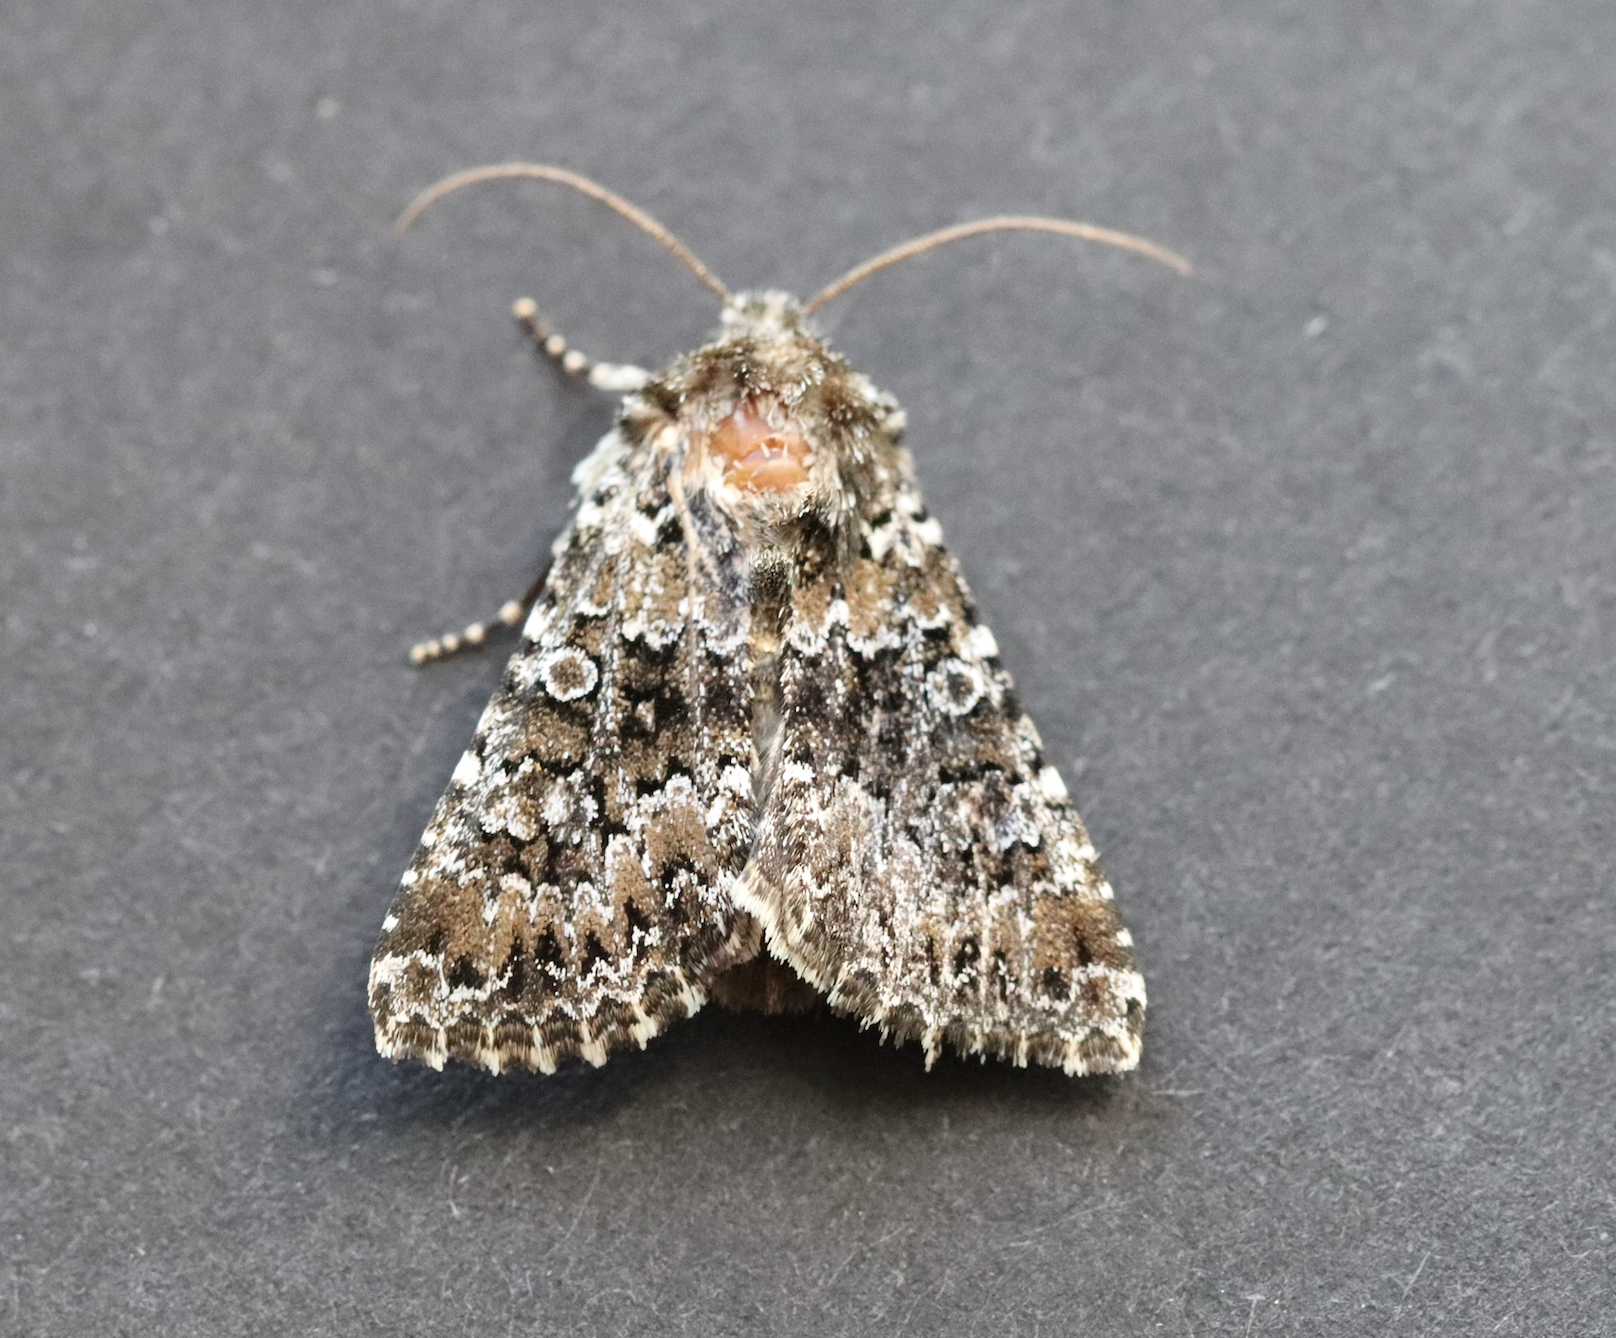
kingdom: Animalia
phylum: Arthropoda
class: Insecta
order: Lepidoptera
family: Noctuidae
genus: Hadena
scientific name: Hadena magnolii
